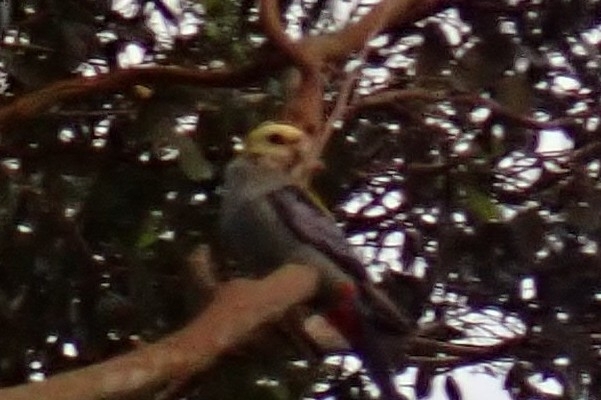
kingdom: Animalia
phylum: Chordata
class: Aves
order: Psittaciformes
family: Psittacidae
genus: Platycercus
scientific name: Platycercus adscitus
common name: Pale-headed rosella
